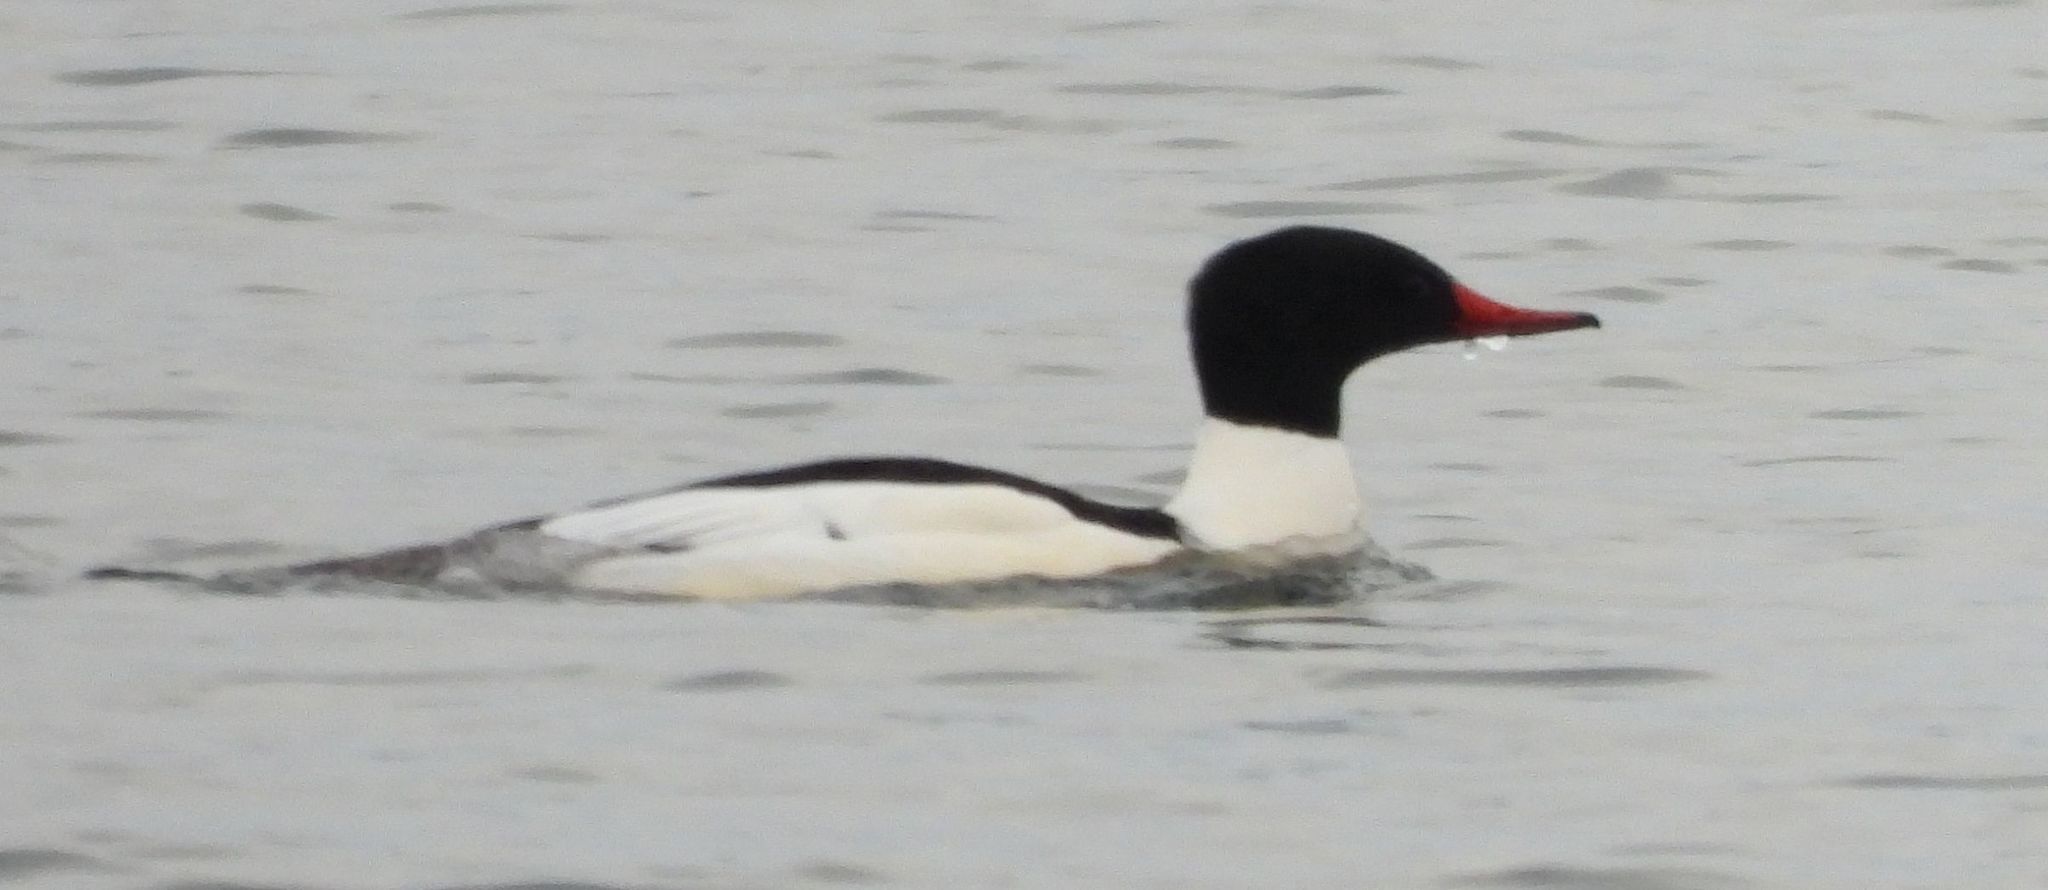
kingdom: Animalia
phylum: Chordata
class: Aves
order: Anseriformes
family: Anatidae
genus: Mergus
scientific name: Mergus merganser
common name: Common merganser
